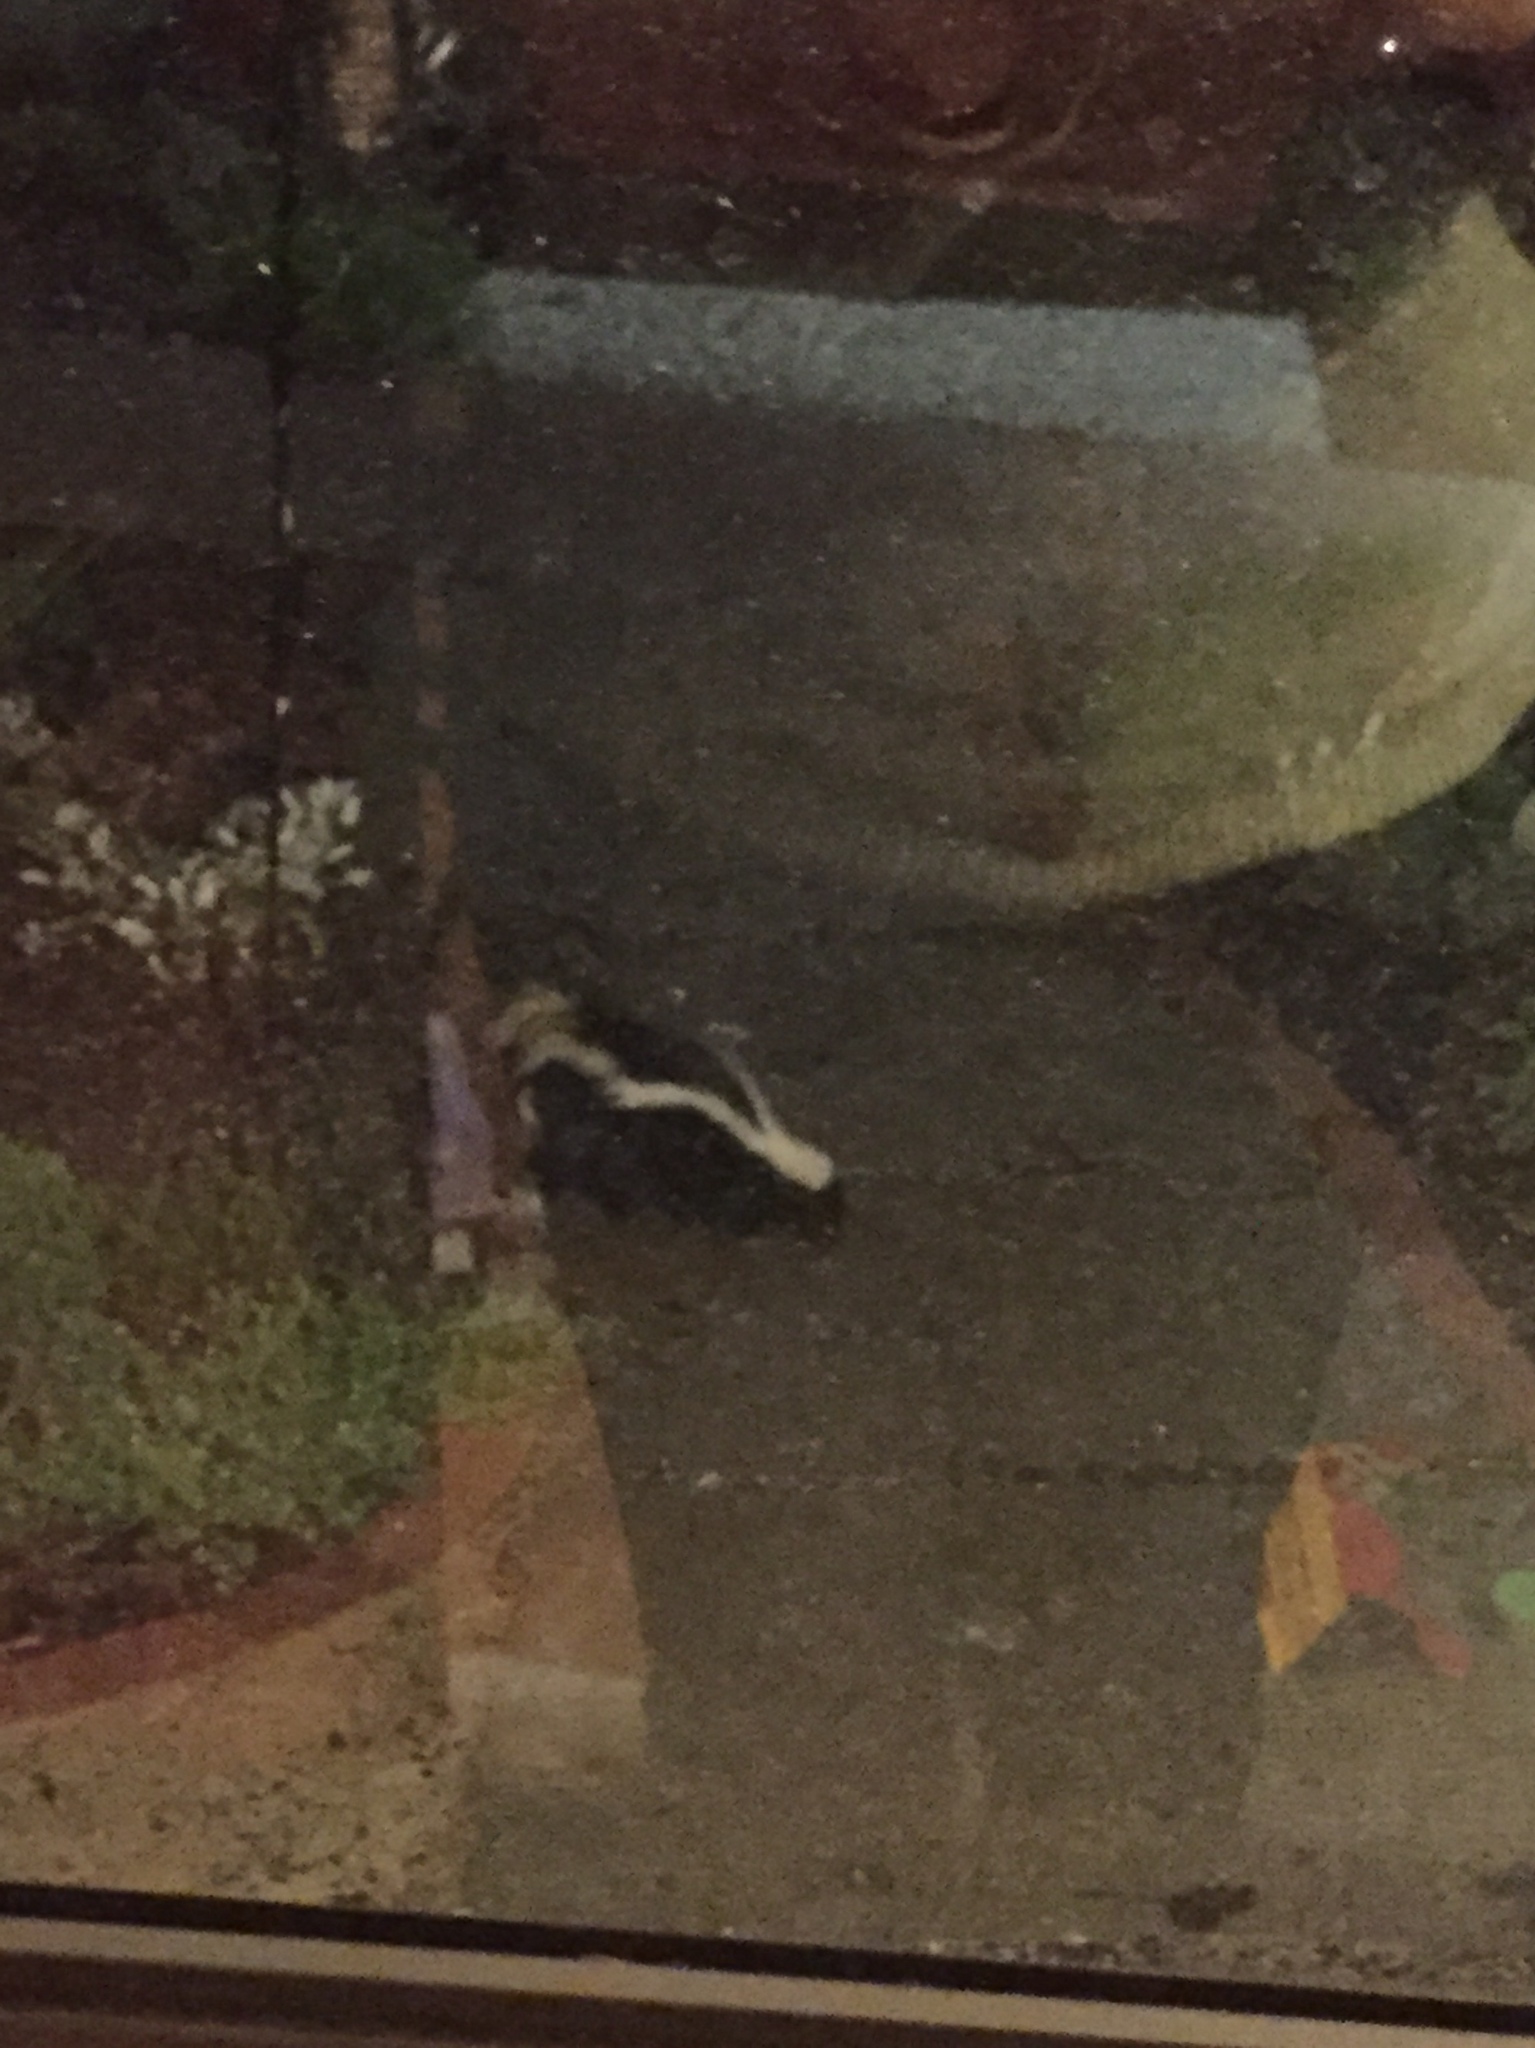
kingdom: Animalia
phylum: Chordata
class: Mammalia
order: Carnivora
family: Mephitidae
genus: Mephitis
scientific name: Mephitis mephitis
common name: Striped skunk
